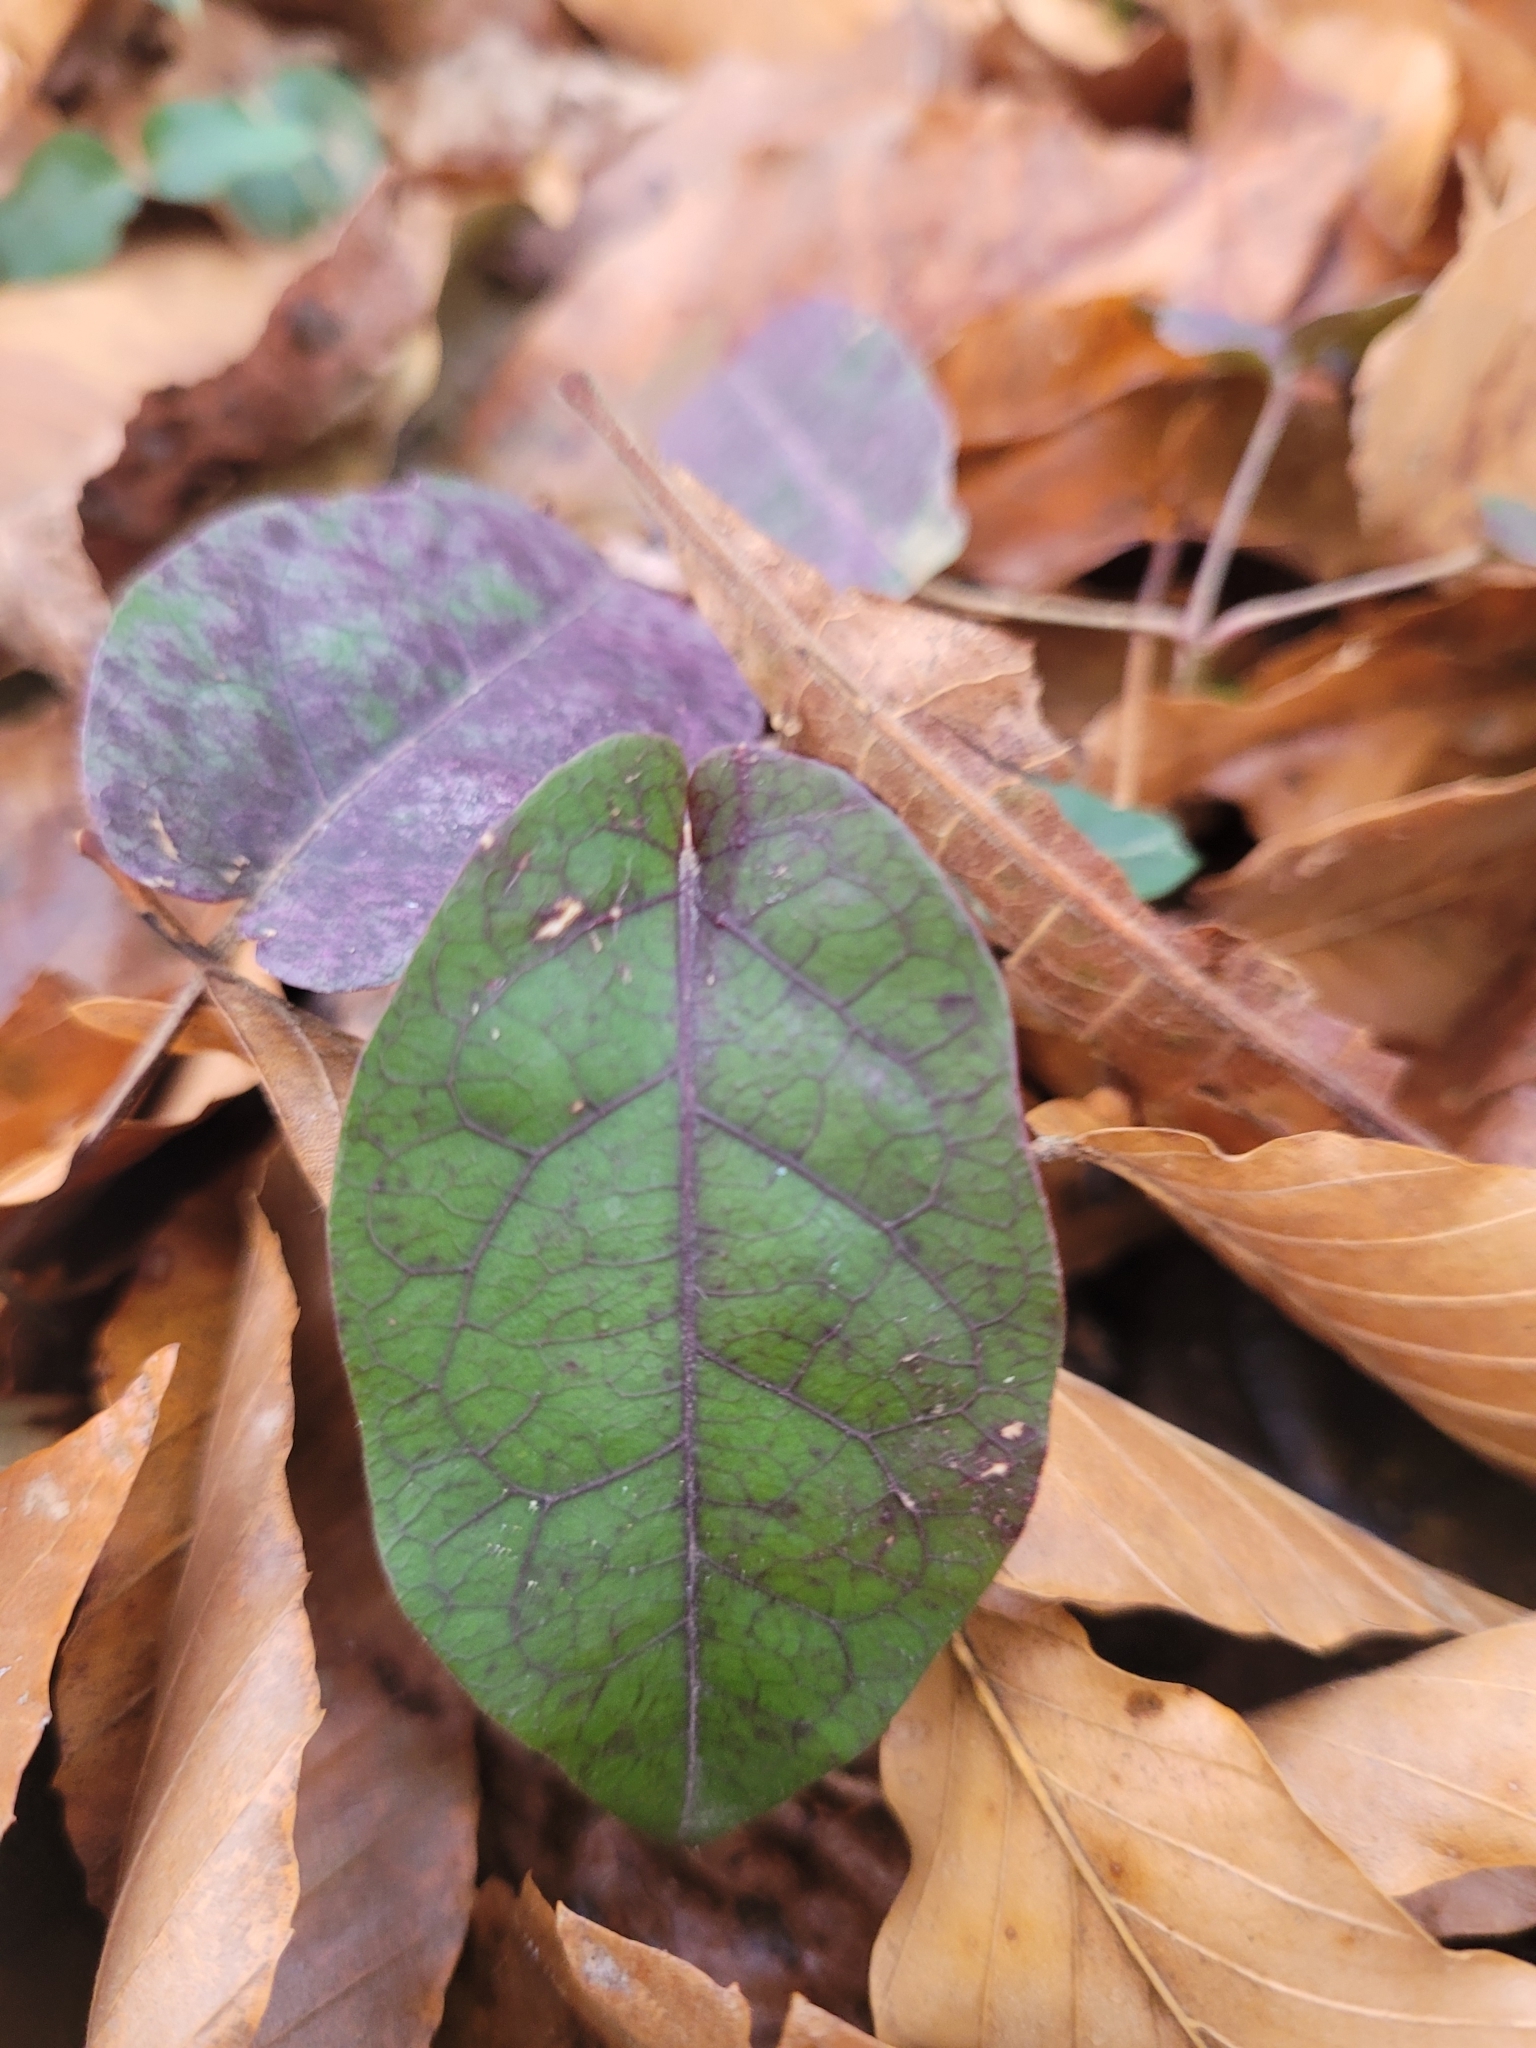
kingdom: Plantae
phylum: Tracheophyta
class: Magnoliopsida
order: Lamiales
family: Bignoniaceae
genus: Bignonia
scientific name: Bignonia capreolata
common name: Crossvine
